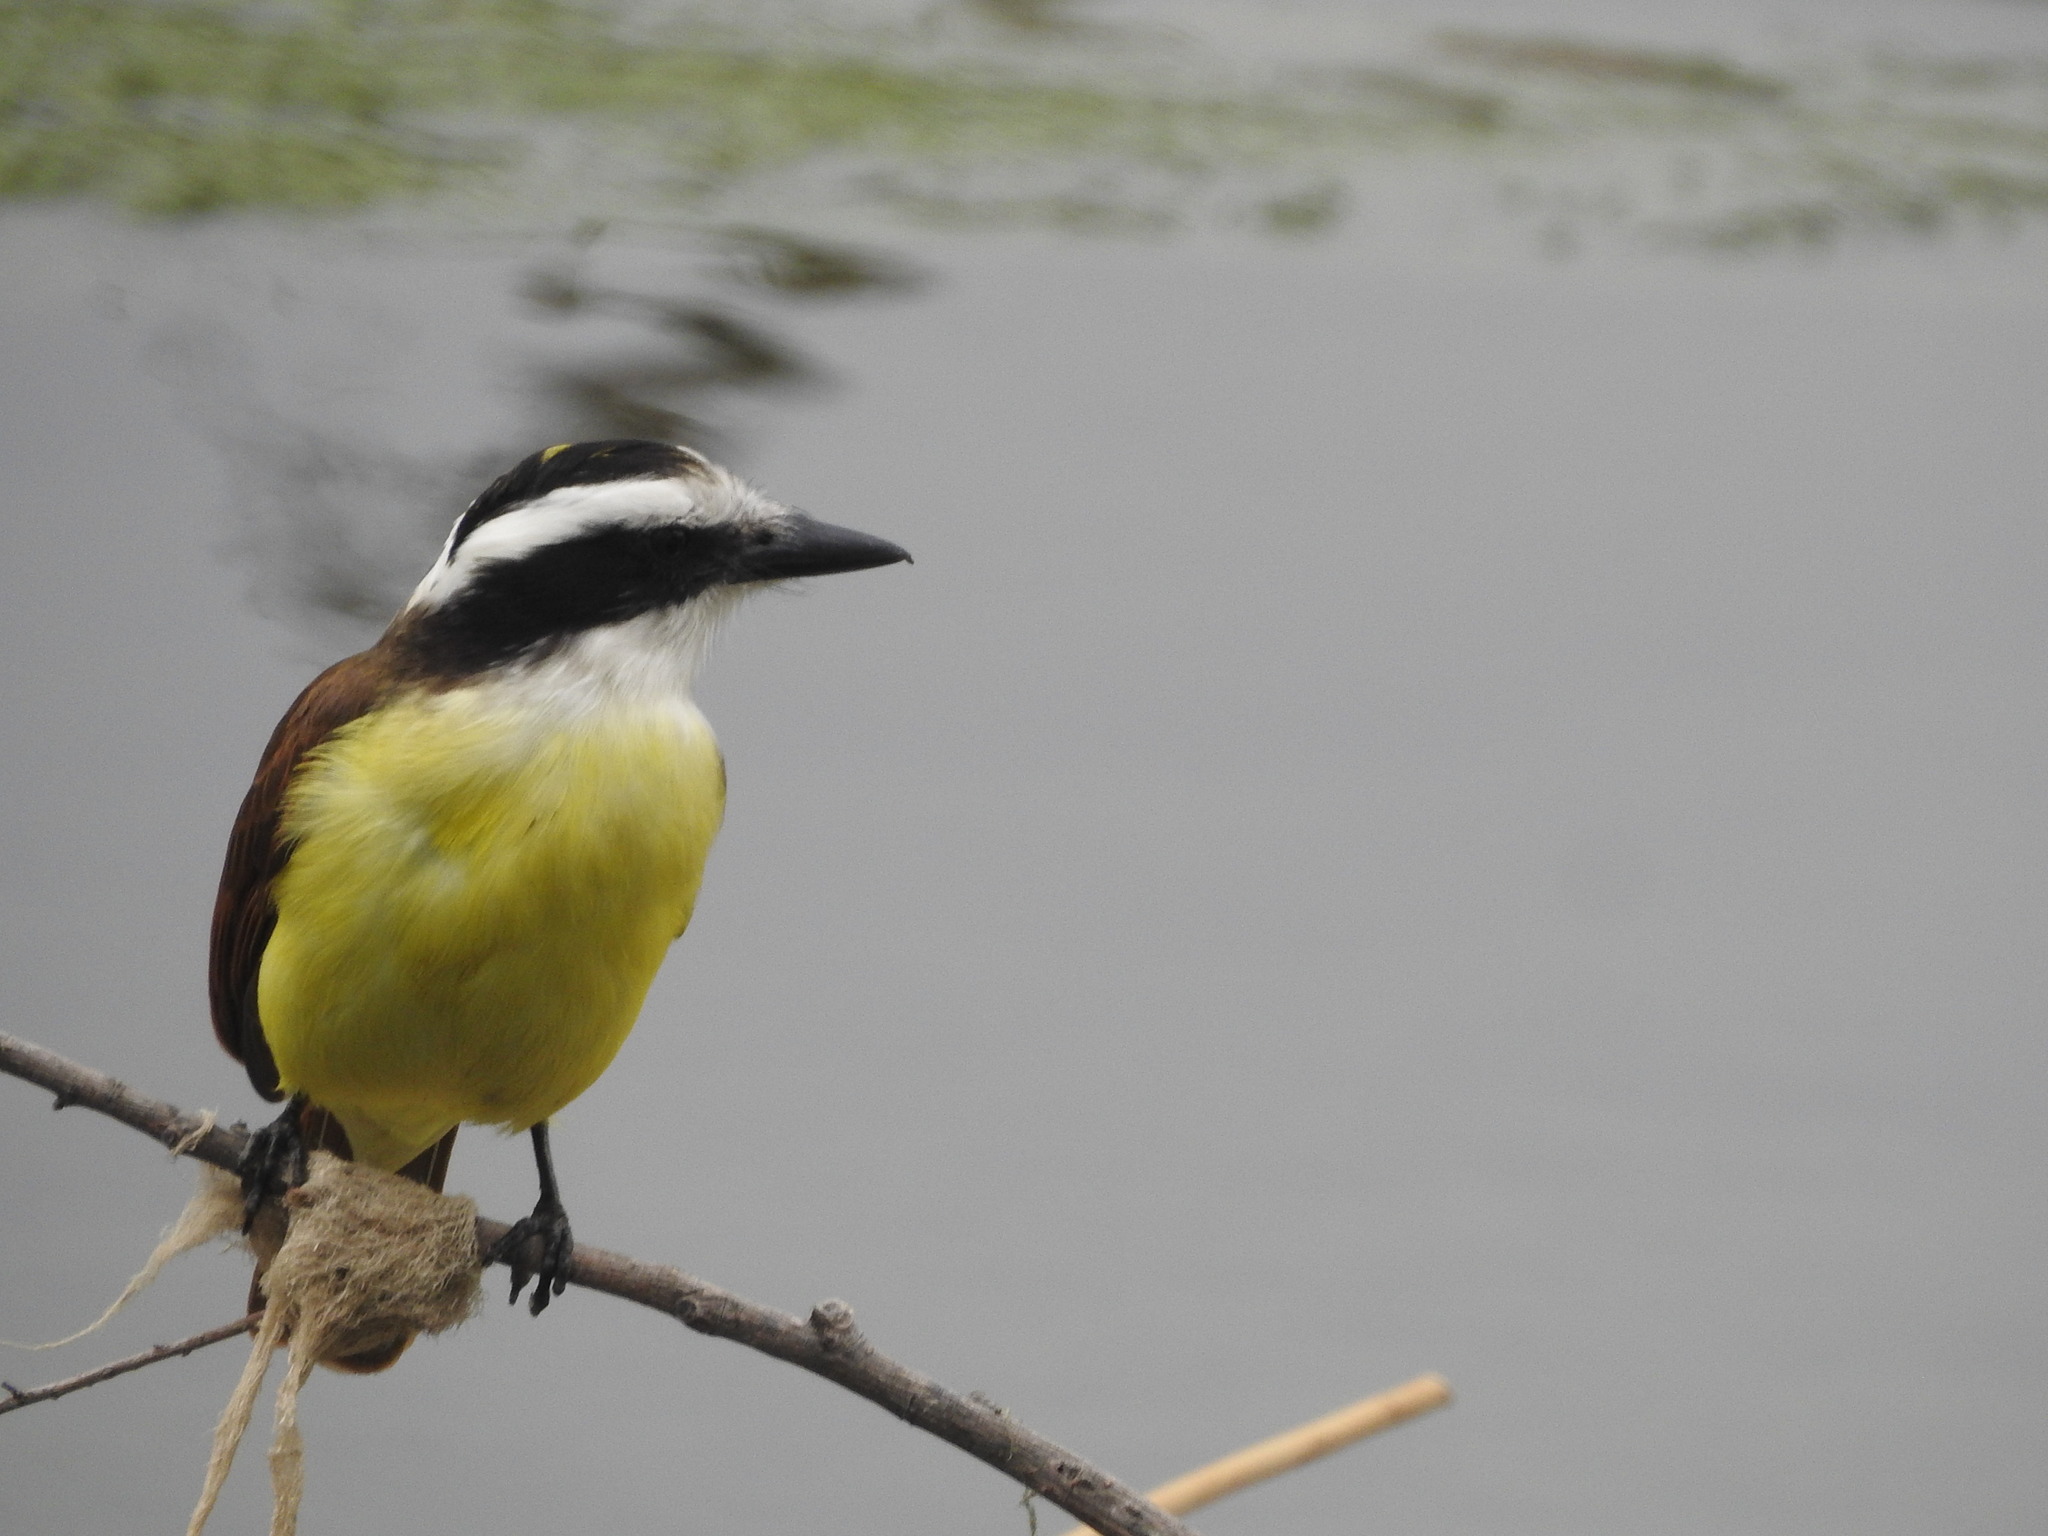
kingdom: Animalia
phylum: Chordata
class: Aves
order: Passeriformes
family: Tyrannidae
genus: Pitangus
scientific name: Pitangus sulphuratus
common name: Great kiskadee
